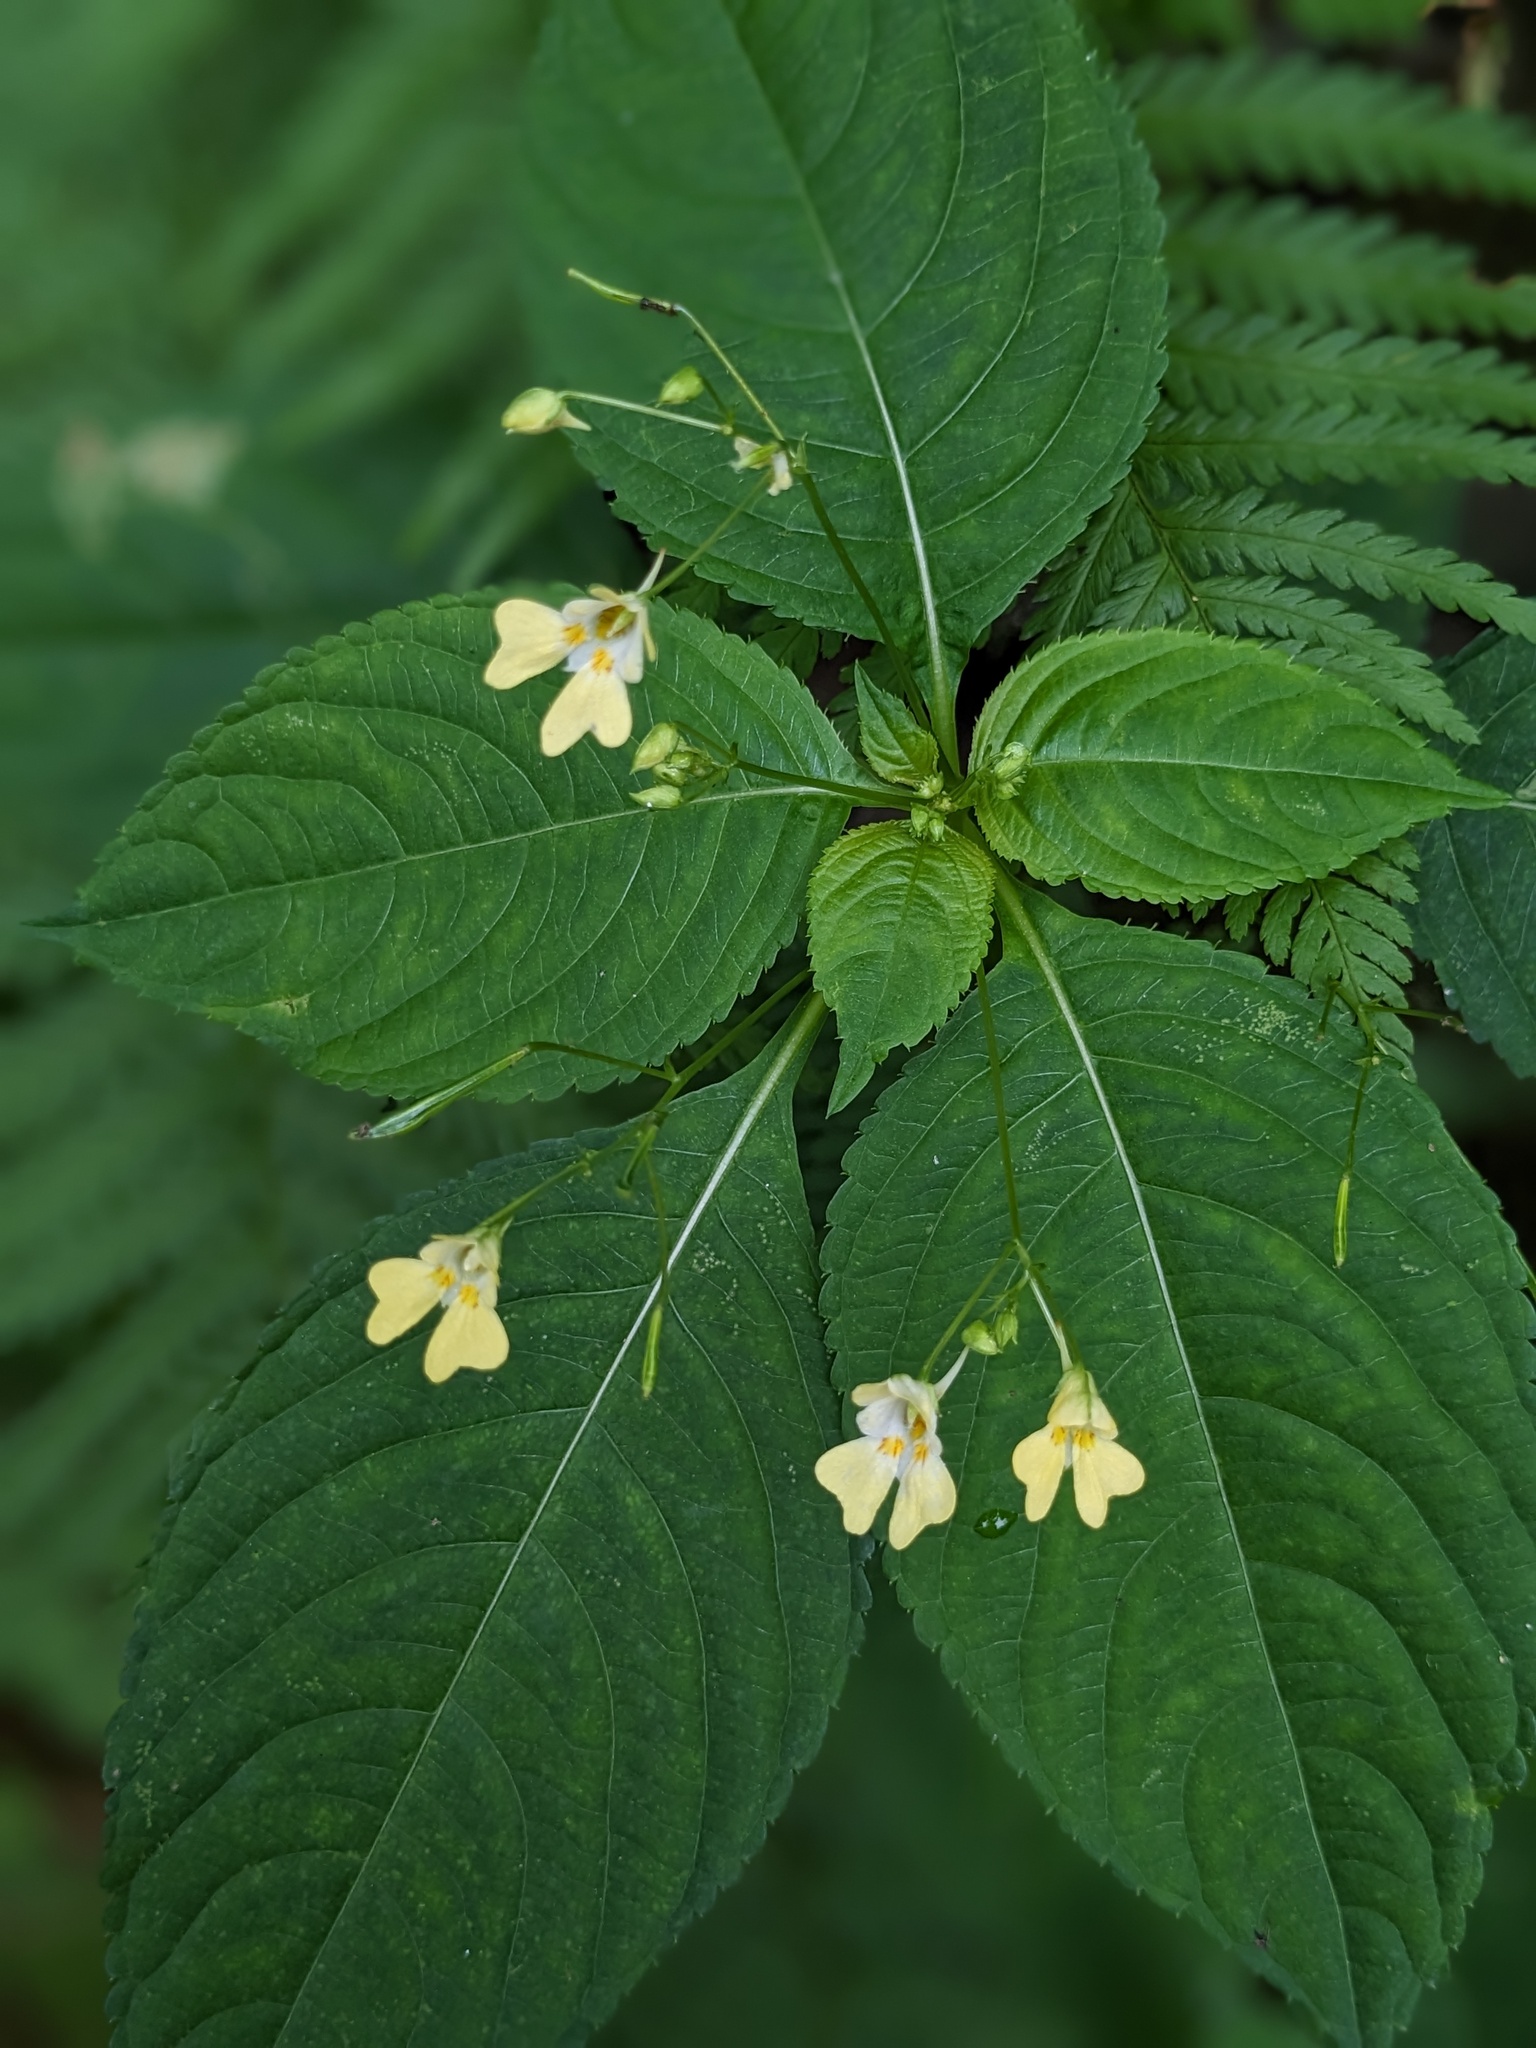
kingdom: Plantae
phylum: Tracheophyta
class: Magnoliopsida
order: Ericales
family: Balsaminaceae
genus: Impatiens
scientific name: Impatiens parviflora
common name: Small balsam
